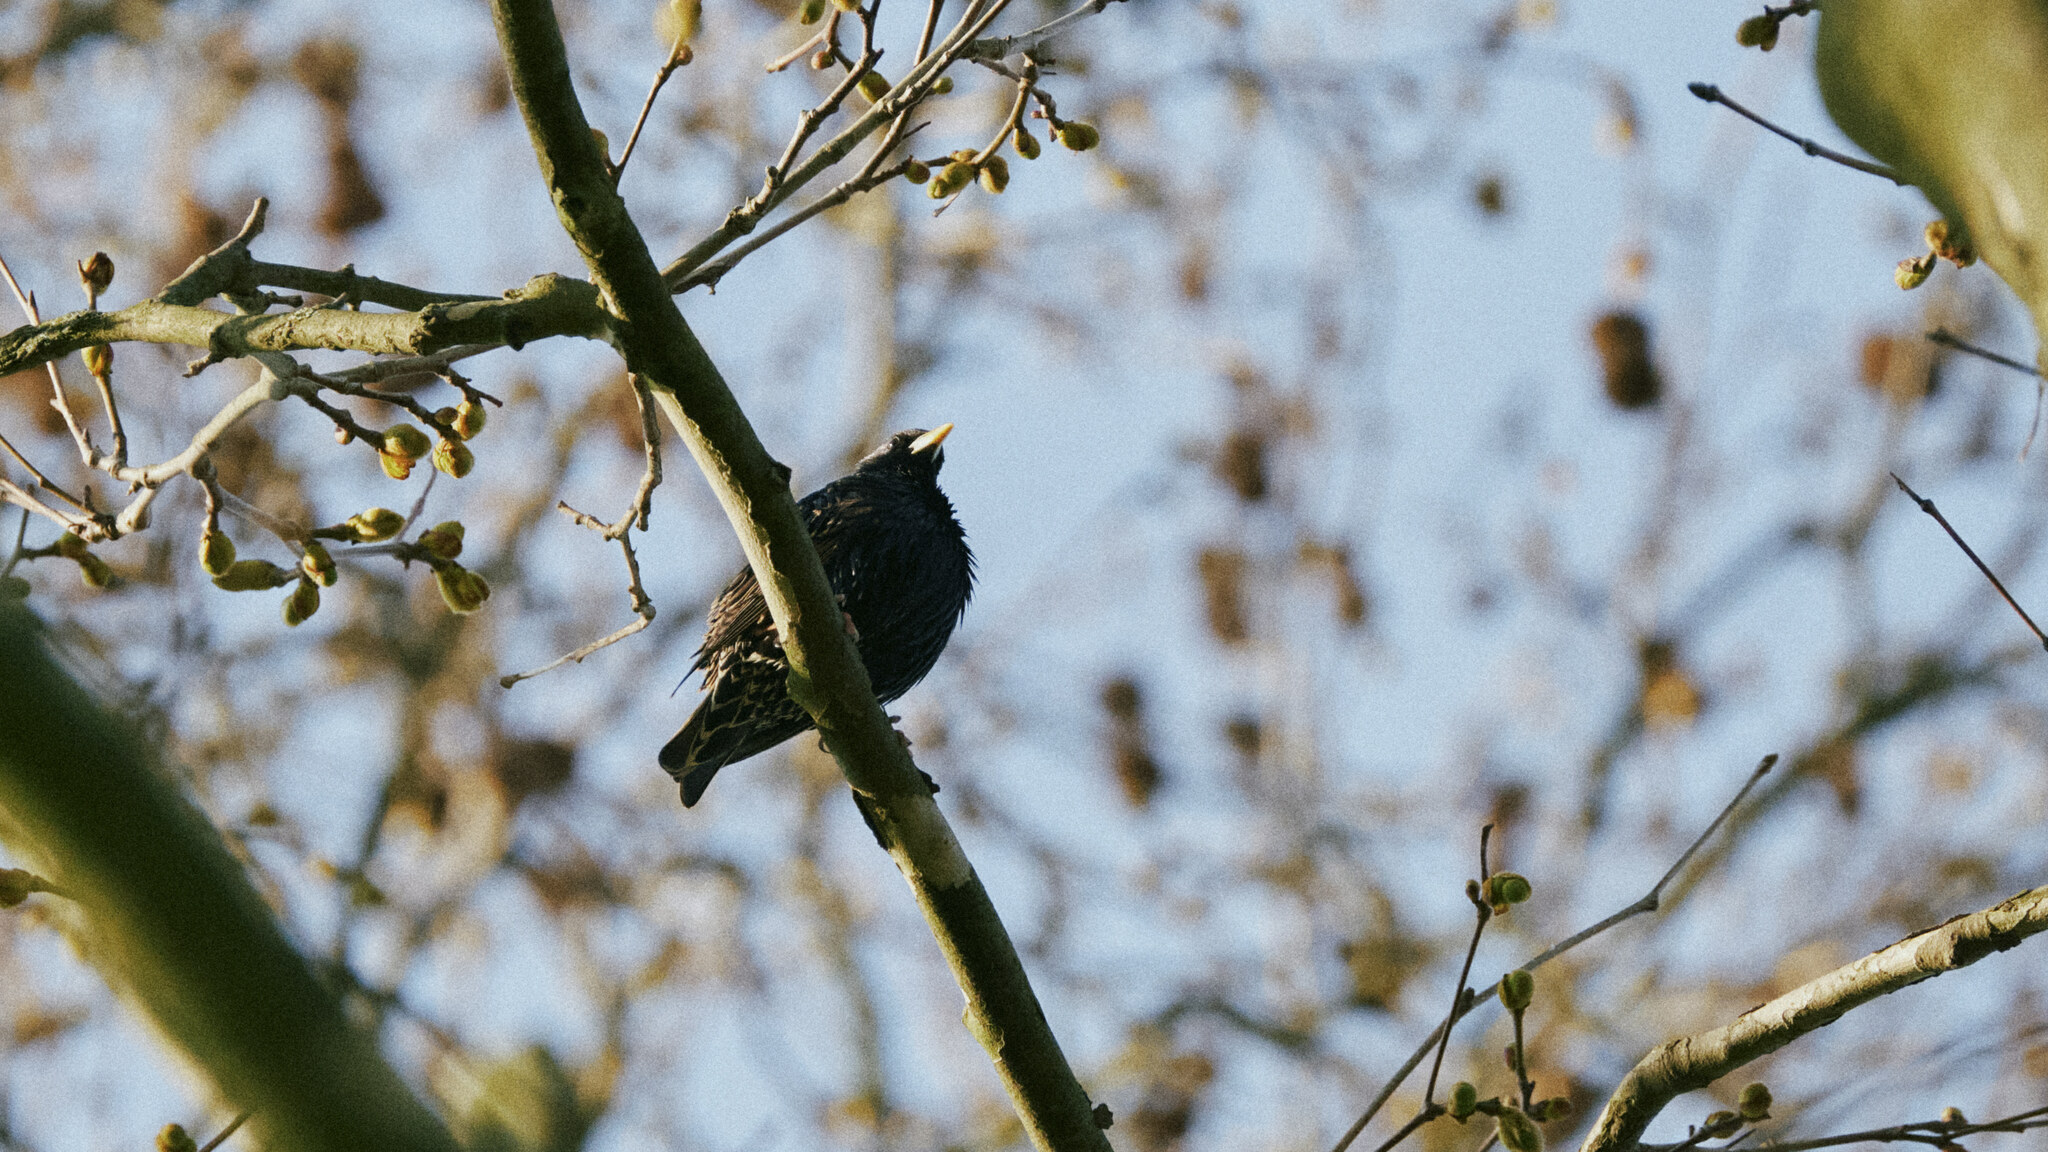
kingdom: Animalia
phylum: Chordata
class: Aves
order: Passeriformes
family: Sturnidae
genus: Sturnus
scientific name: Sturnus vulgaris
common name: Common starling
